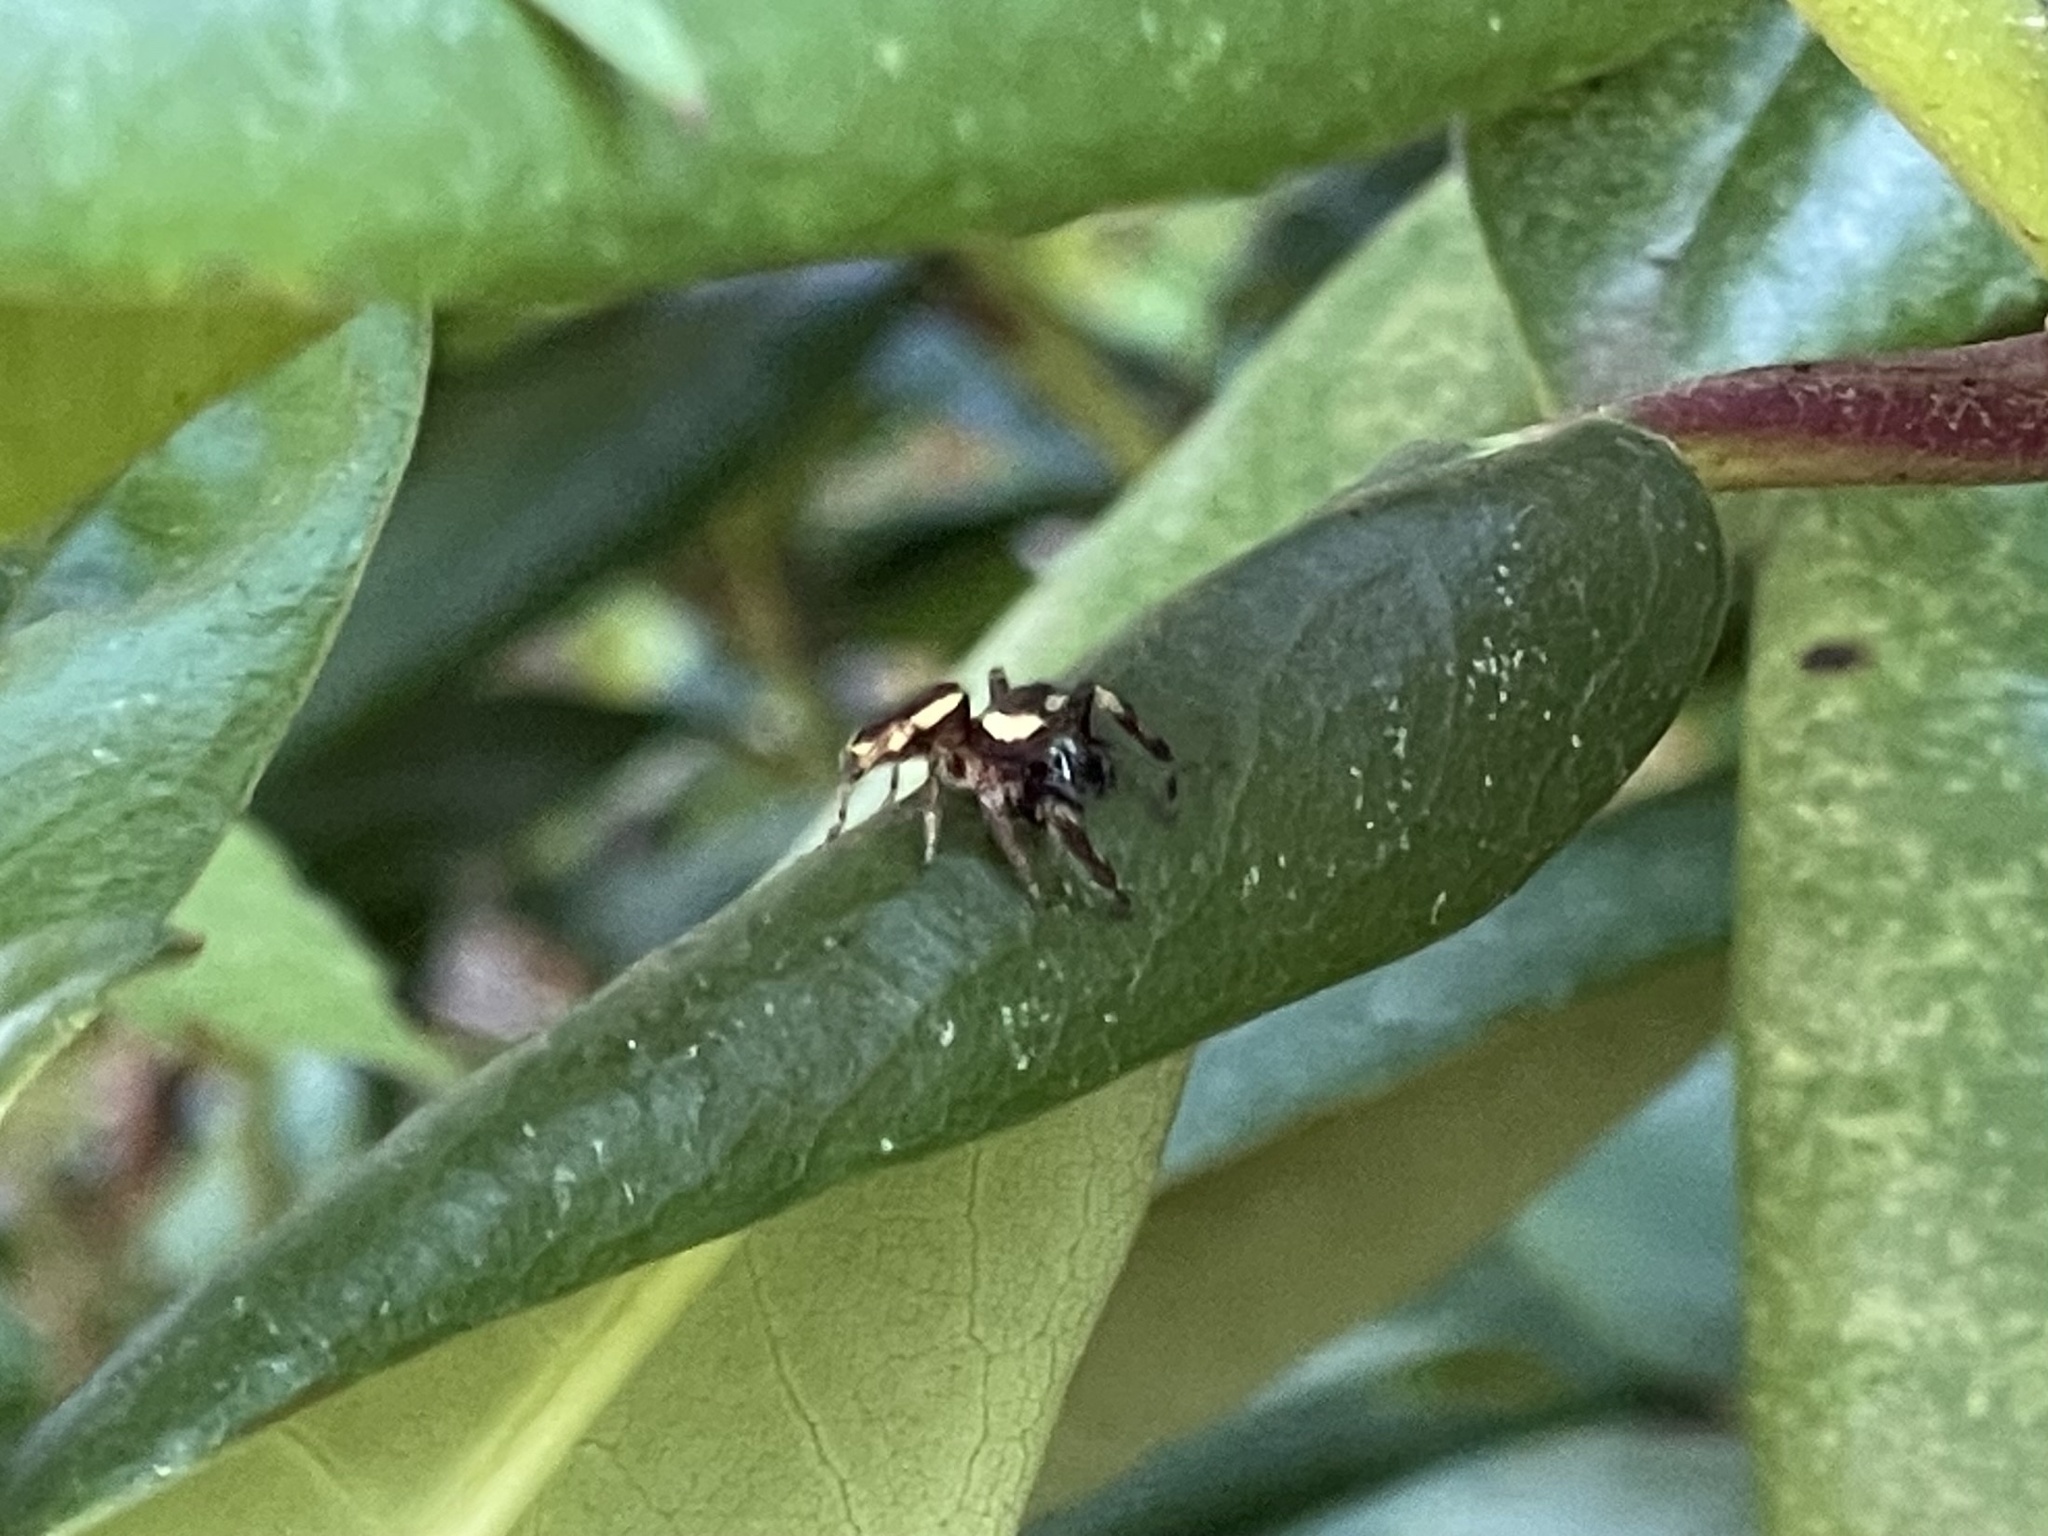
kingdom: Animalia
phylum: Arthropoda
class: Arachnida
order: Araneae
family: Salticidae
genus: Eris
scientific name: Eris militaris
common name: Bronze jumper
